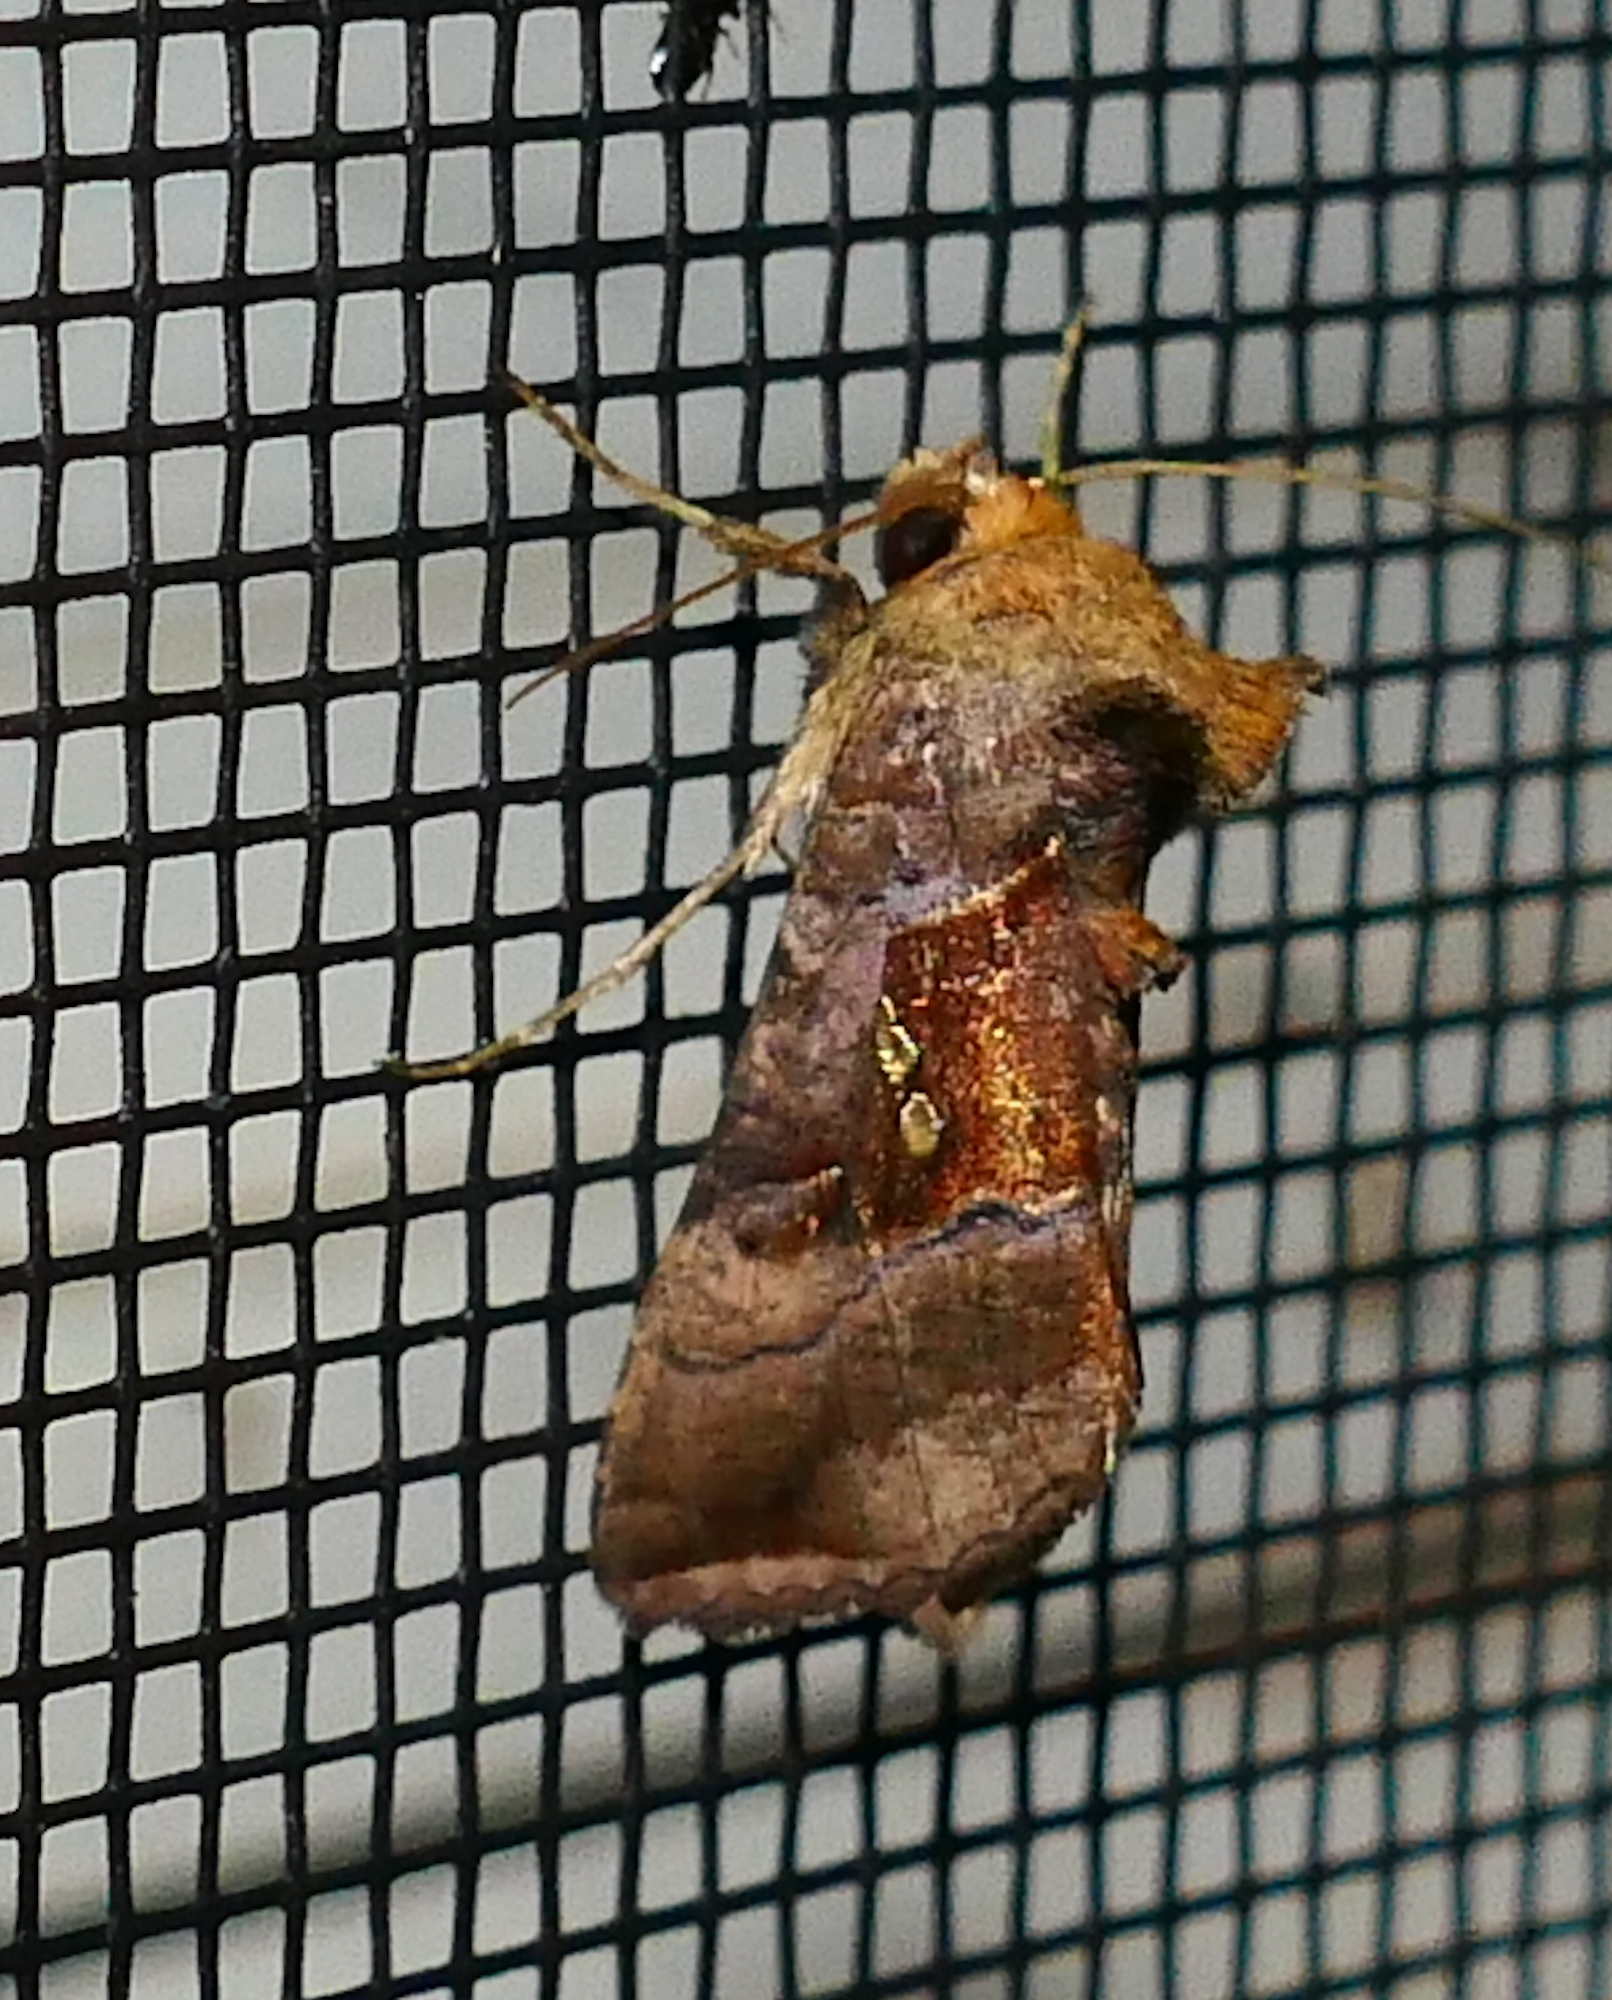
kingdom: Animalia
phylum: Arthropoda
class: Insecta
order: Lepidoptera
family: Noctuidae
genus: Enigmogramma
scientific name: Enigmogramma basigera
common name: Pink-washed looper moth
